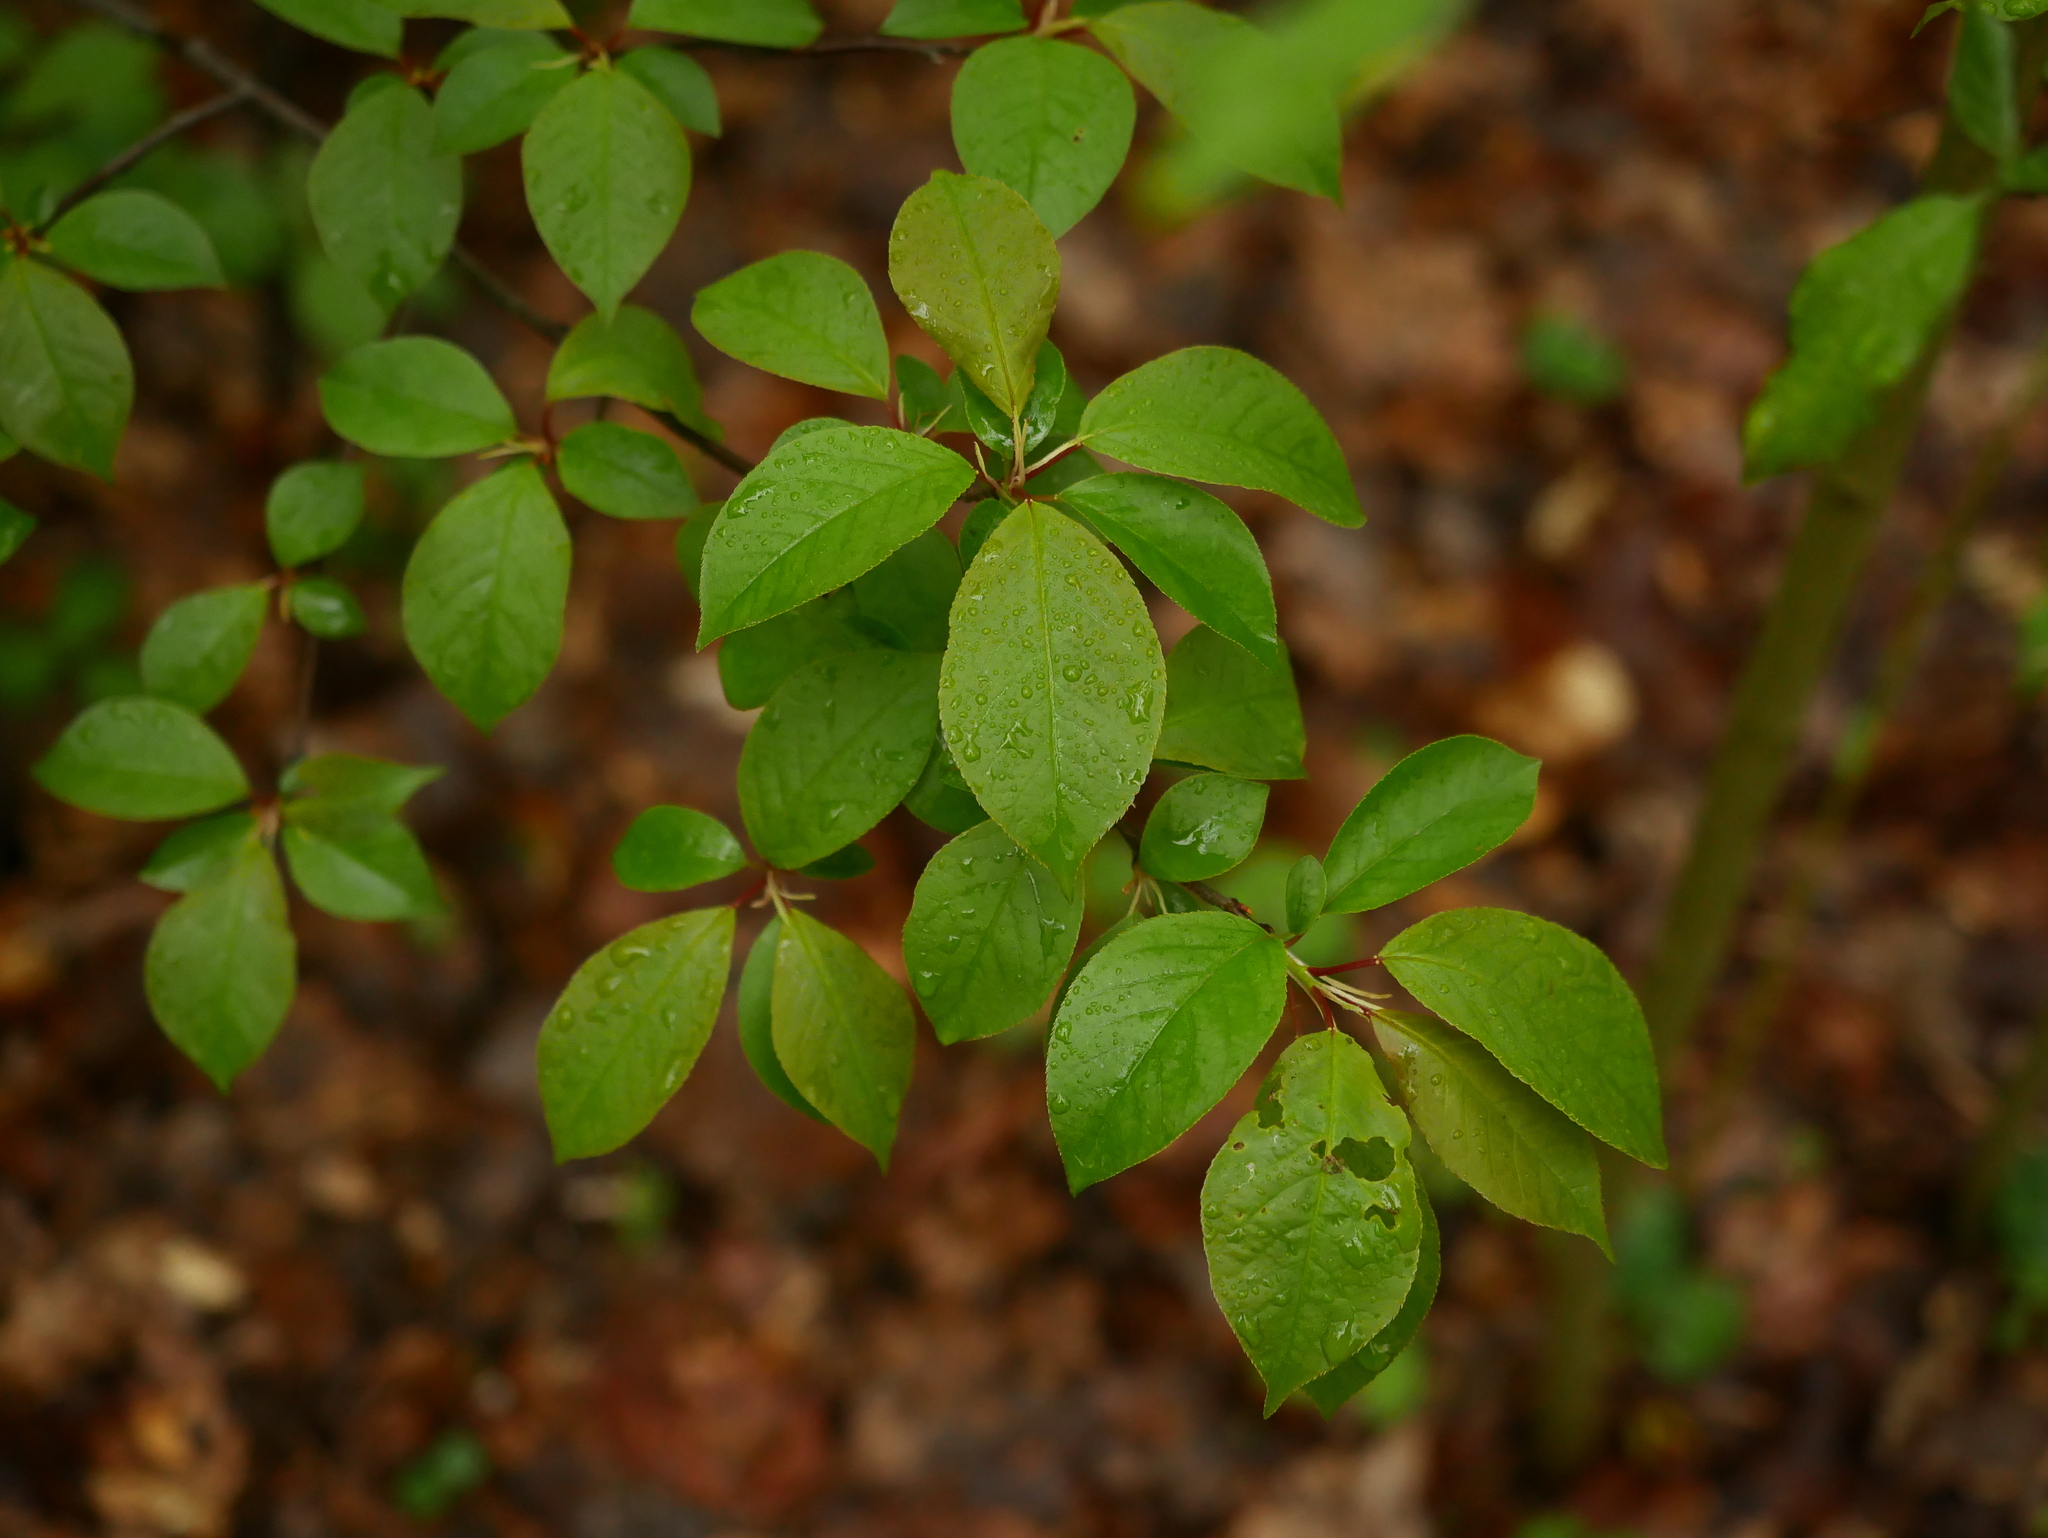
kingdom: Plantae
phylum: Tracheophyta
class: Magnoliopsida
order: Rosales
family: Rosaceae
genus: Prunus
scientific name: Prunus padus
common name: Bird cherry
